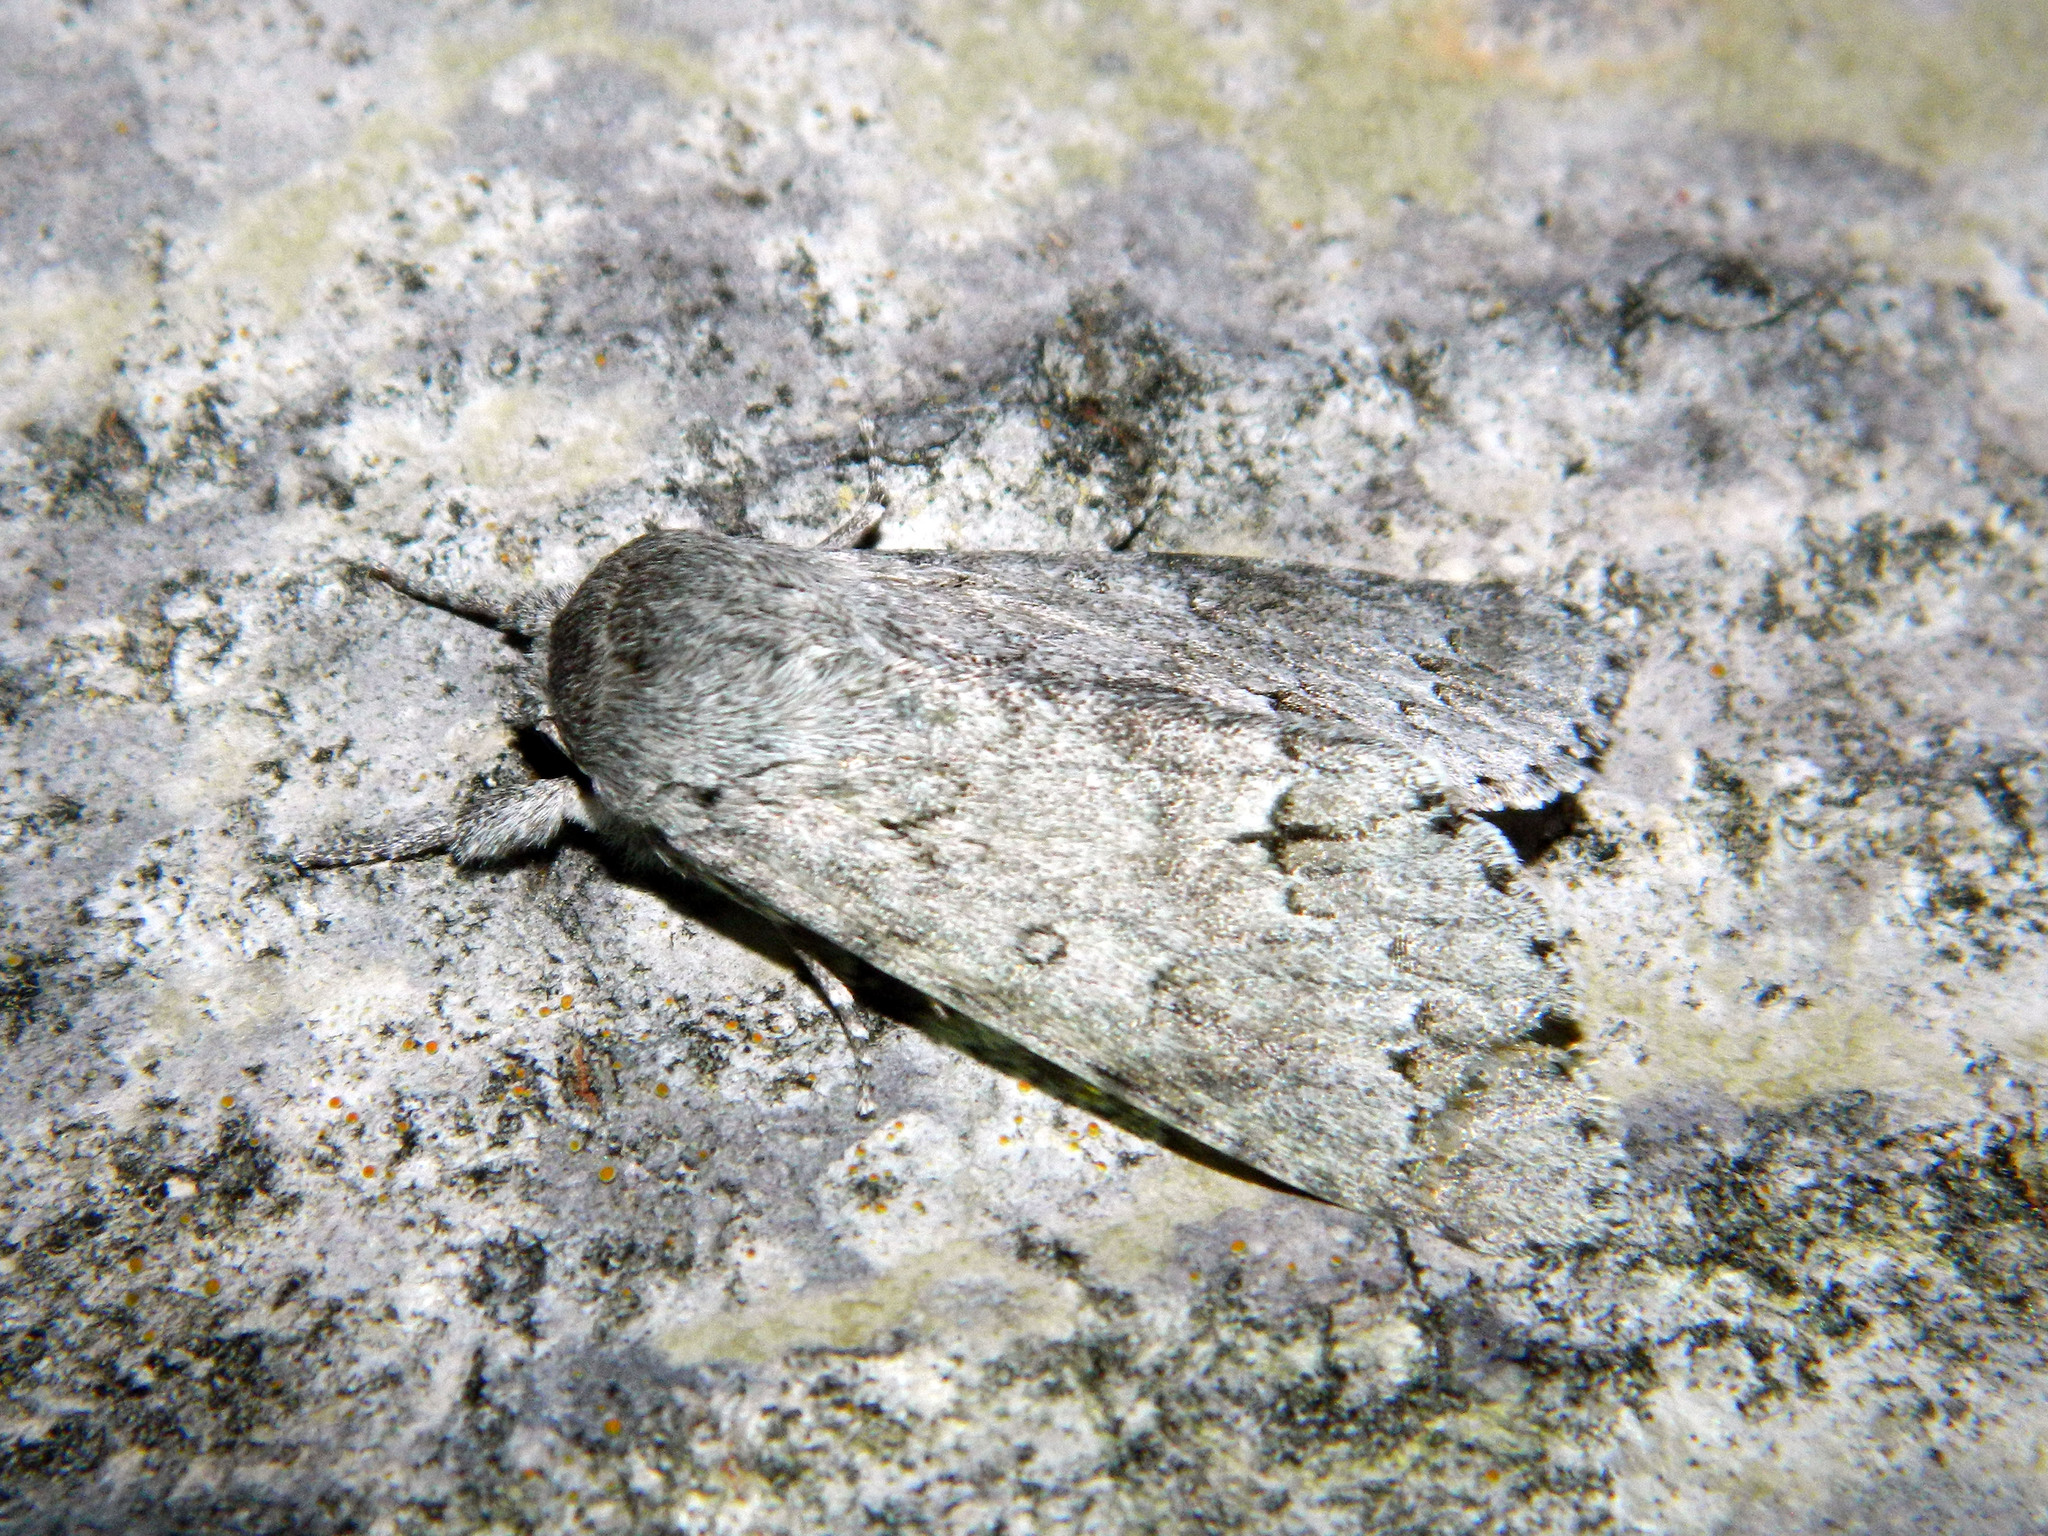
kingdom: Animalia
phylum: Arthropoda
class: Insecta
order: Lepidoptera
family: Noctuidae
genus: Acronicta
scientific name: Acronicta insita
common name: Large gray dagger
